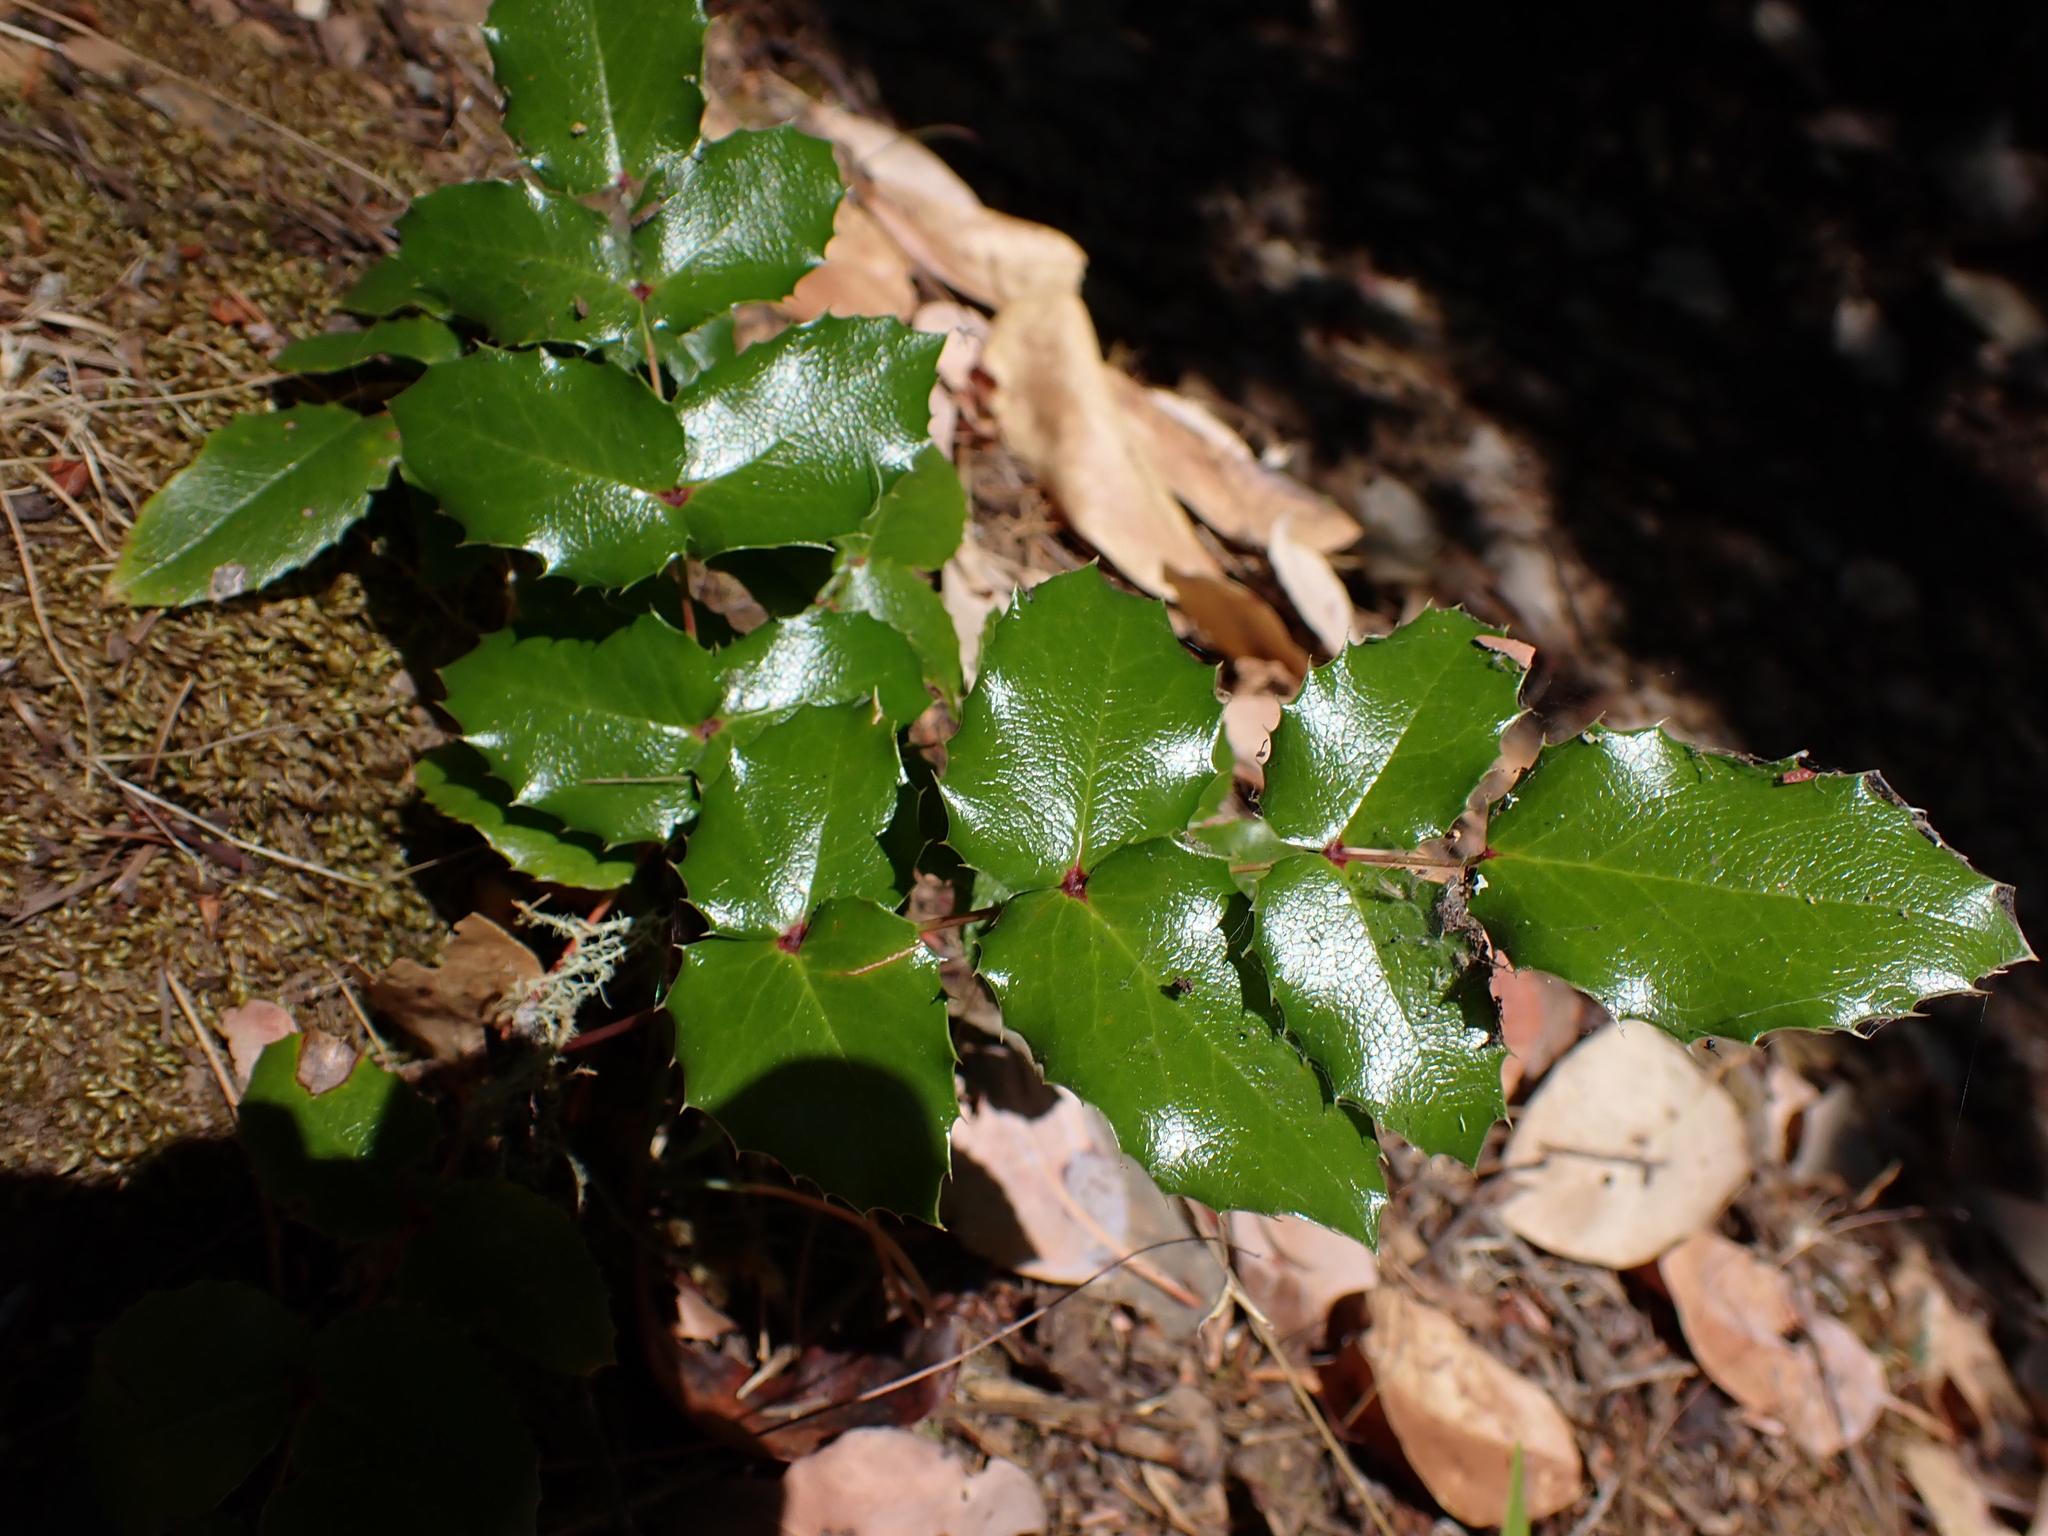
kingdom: Plantae
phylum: Tracheophyta
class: Magnoliopsida
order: Ranunculales
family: Berberidaceae
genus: Mahonia
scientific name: Mahonia aquifolium
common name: Oregon-grape
